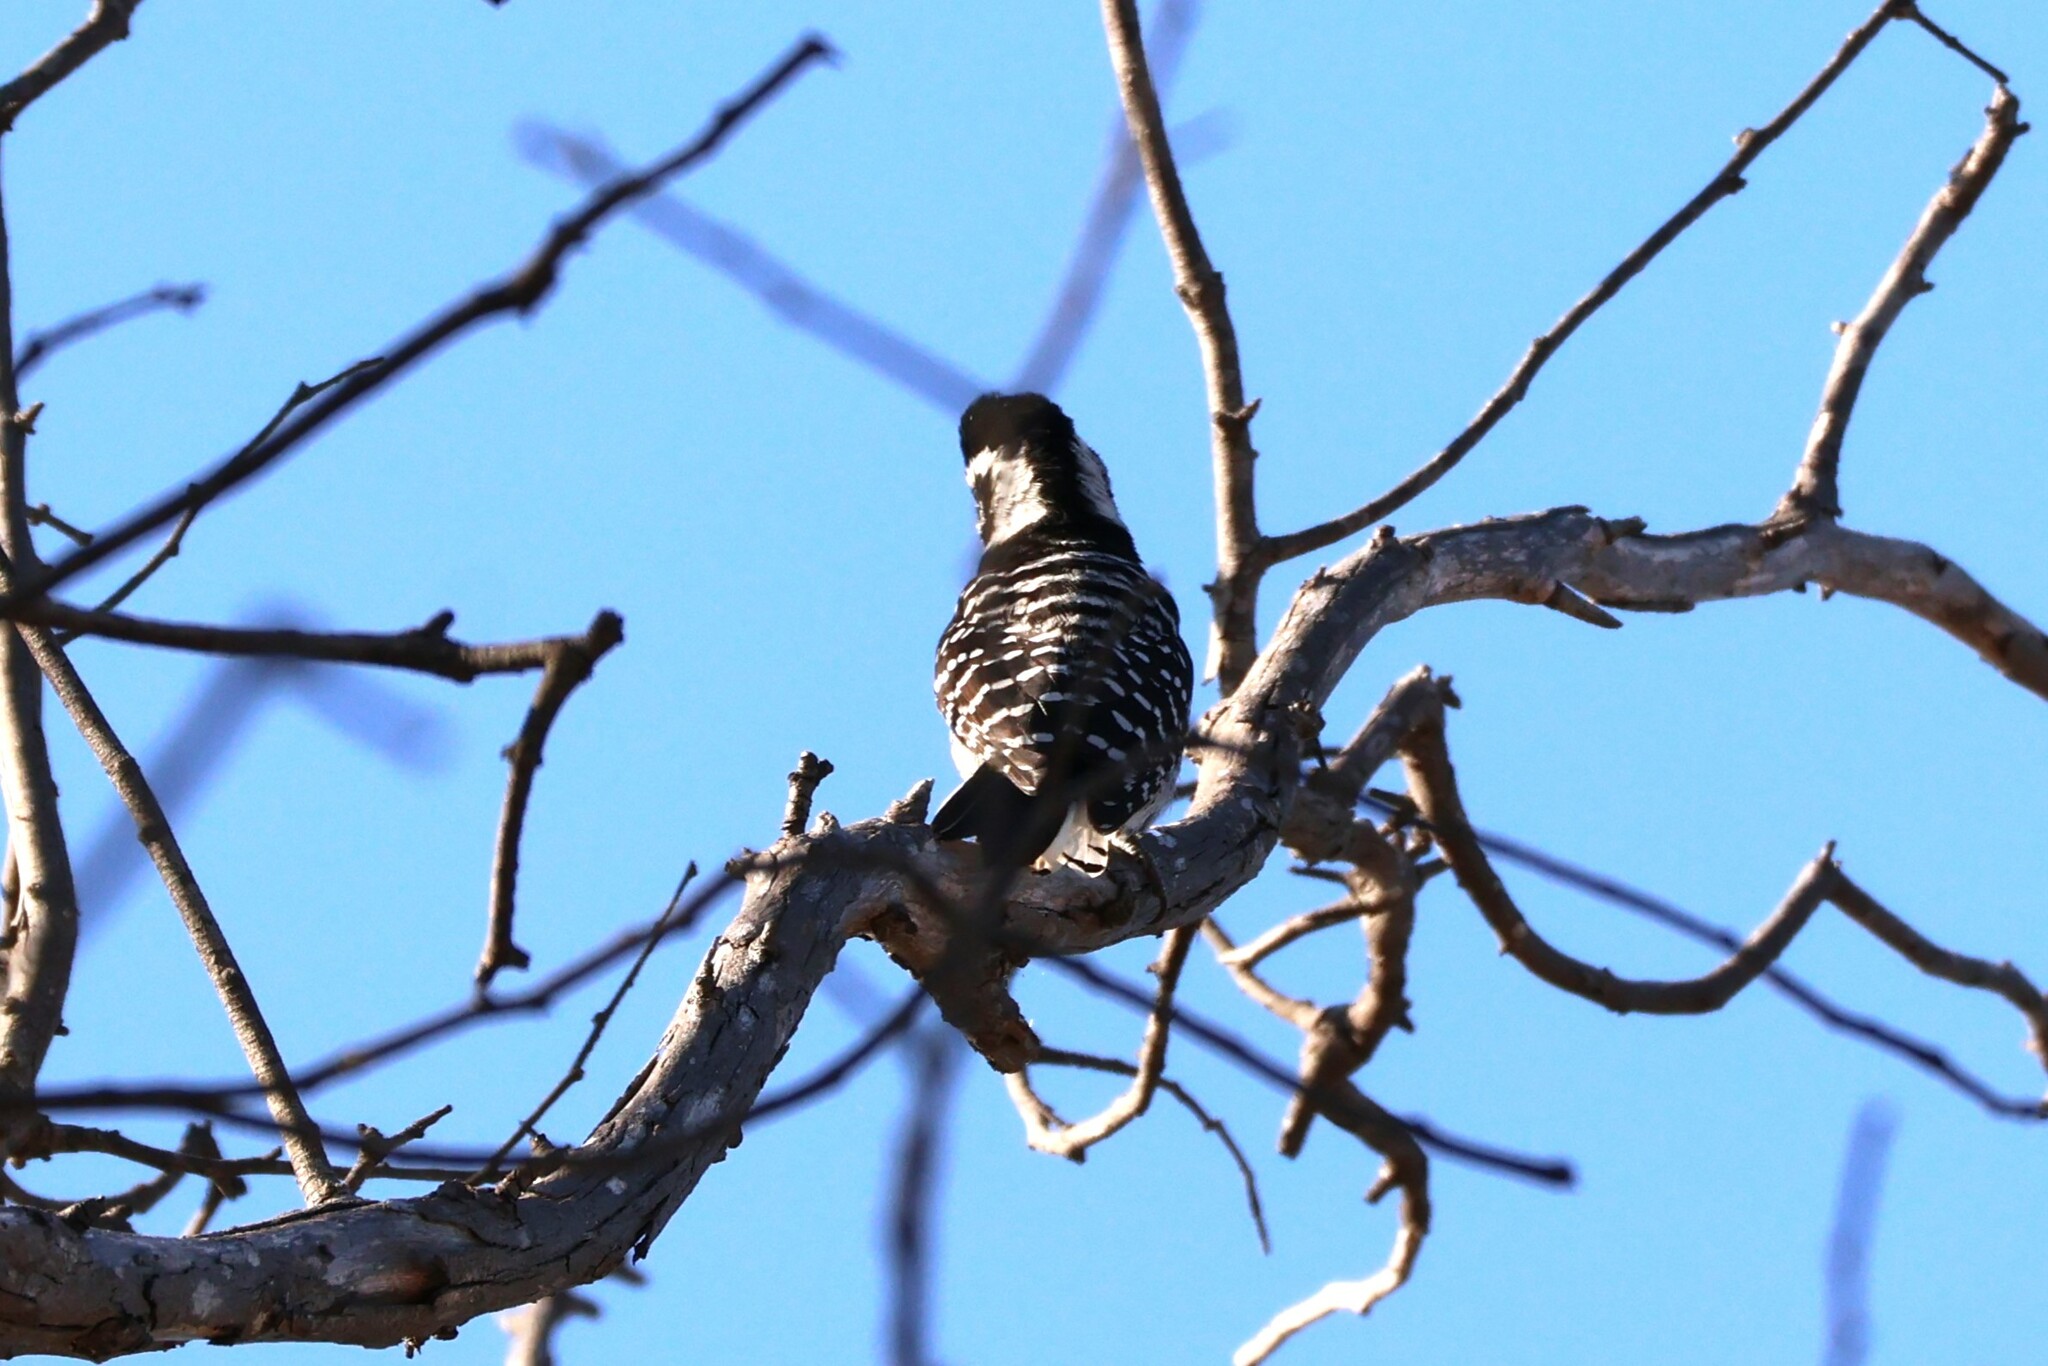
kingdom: Animalia
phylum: Chordata
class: Aves
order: Piciformes
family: Picidae
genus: Dryobates
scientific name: Dryobates nuttallii
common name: Nuttall's woodpecker
